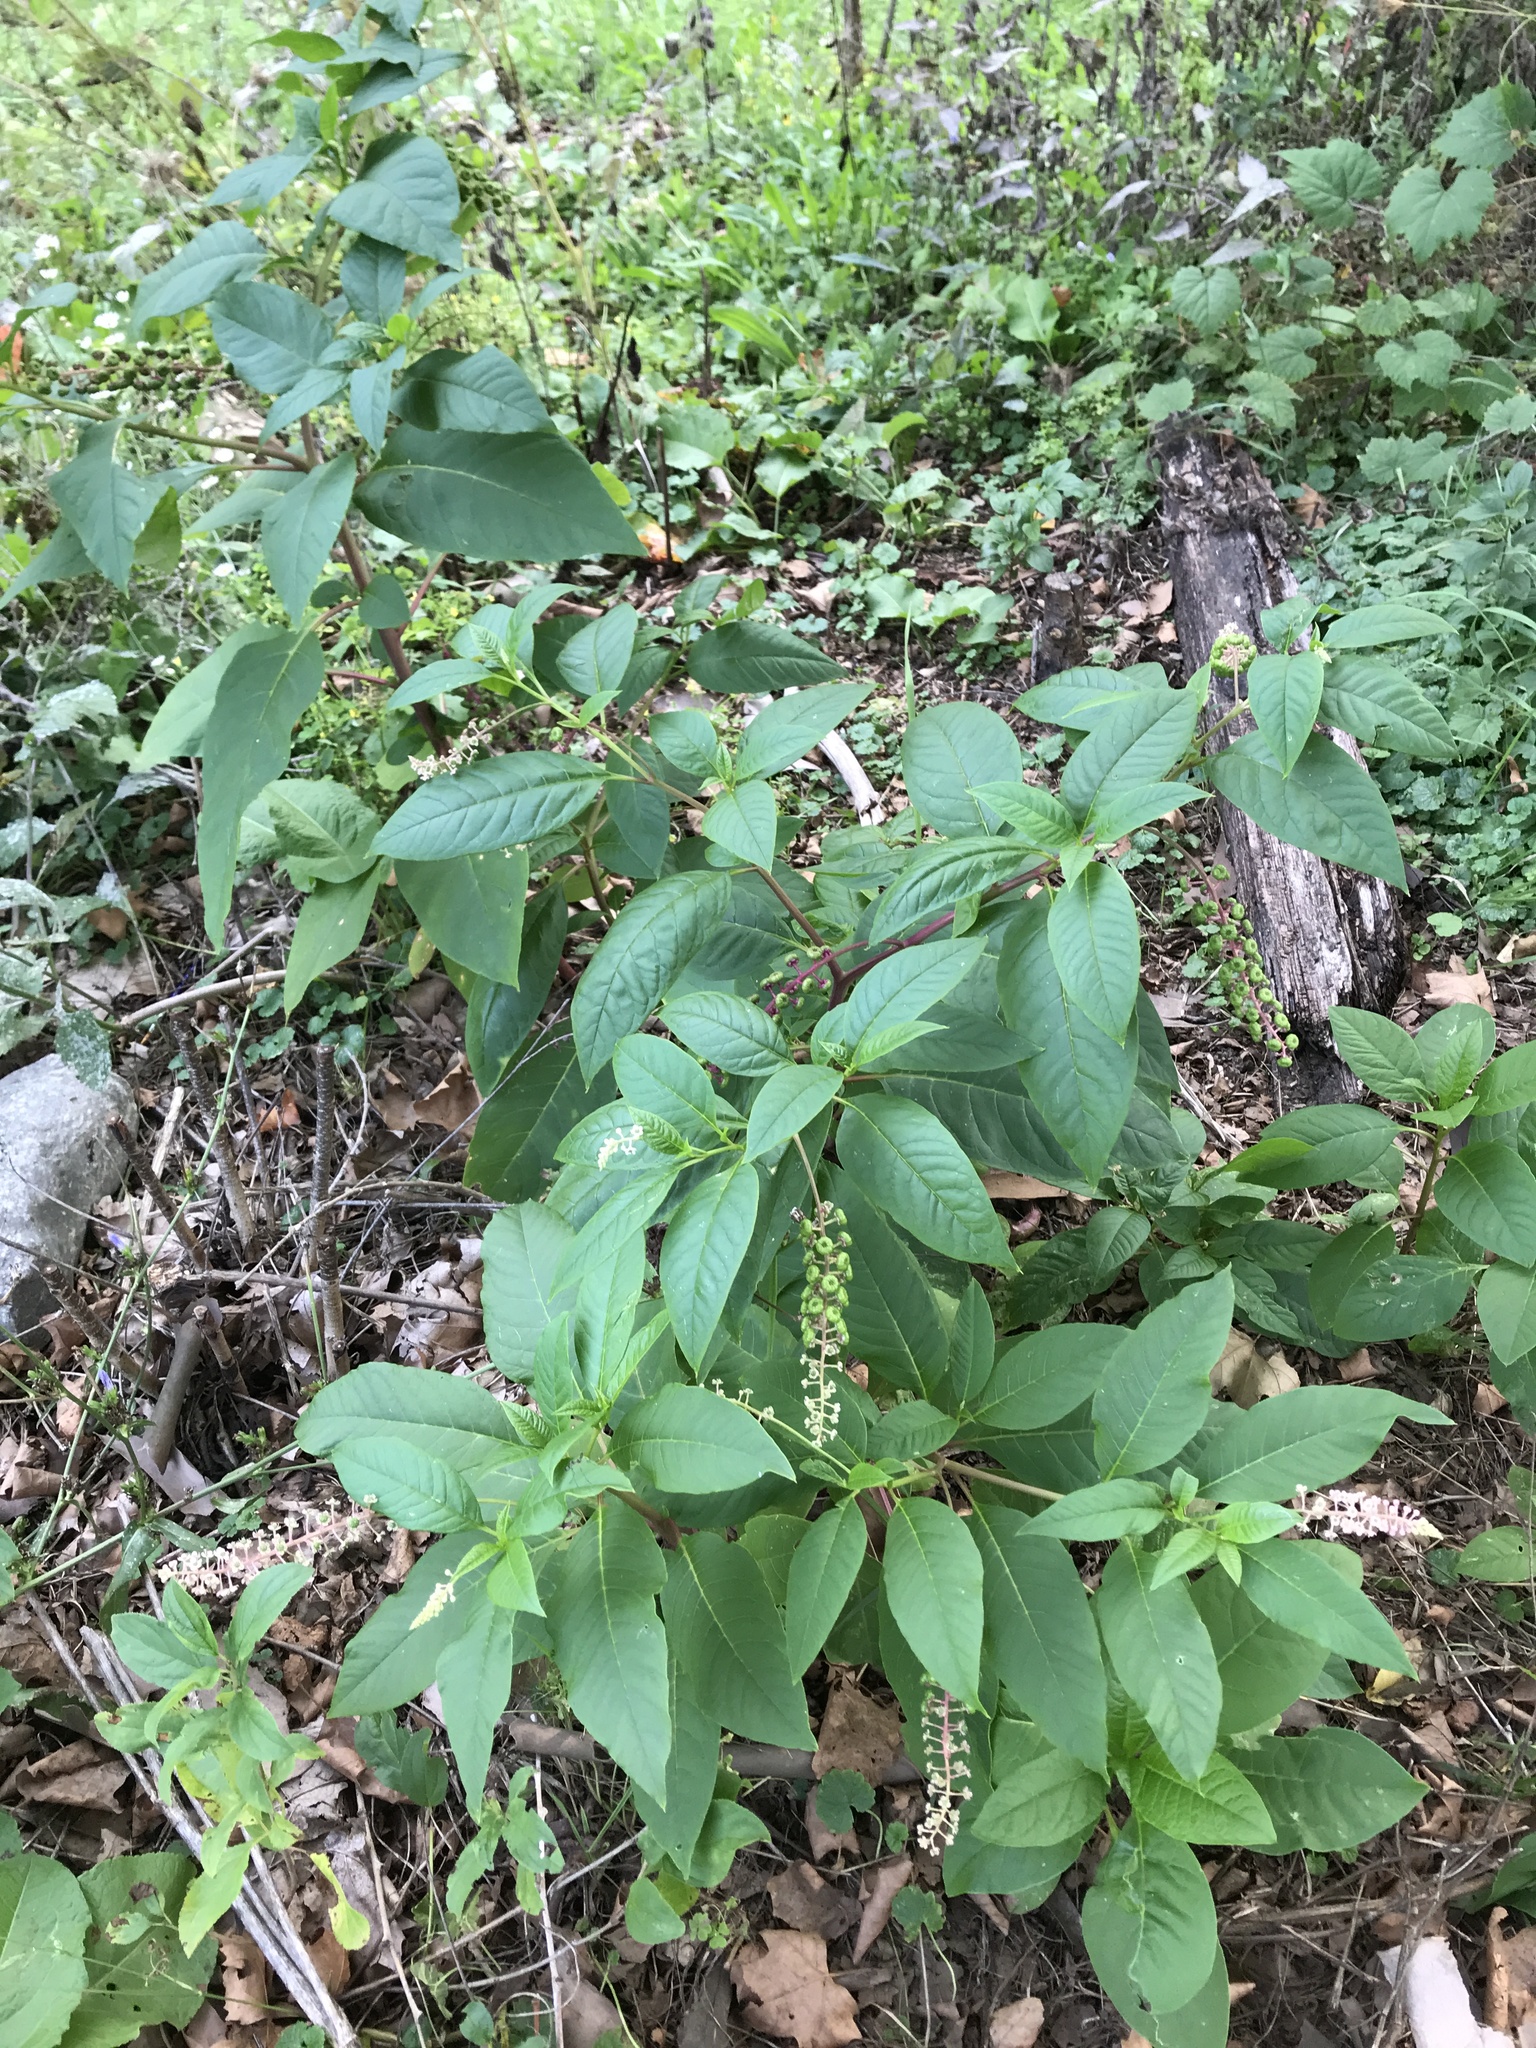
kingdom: Plantae
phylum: Tracheophyta
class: Magnoliopsida
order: Caryophyllales
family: Phytolaccaceae
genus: Phytolacca
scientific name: Phytolacca americana
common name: American pokeweed
